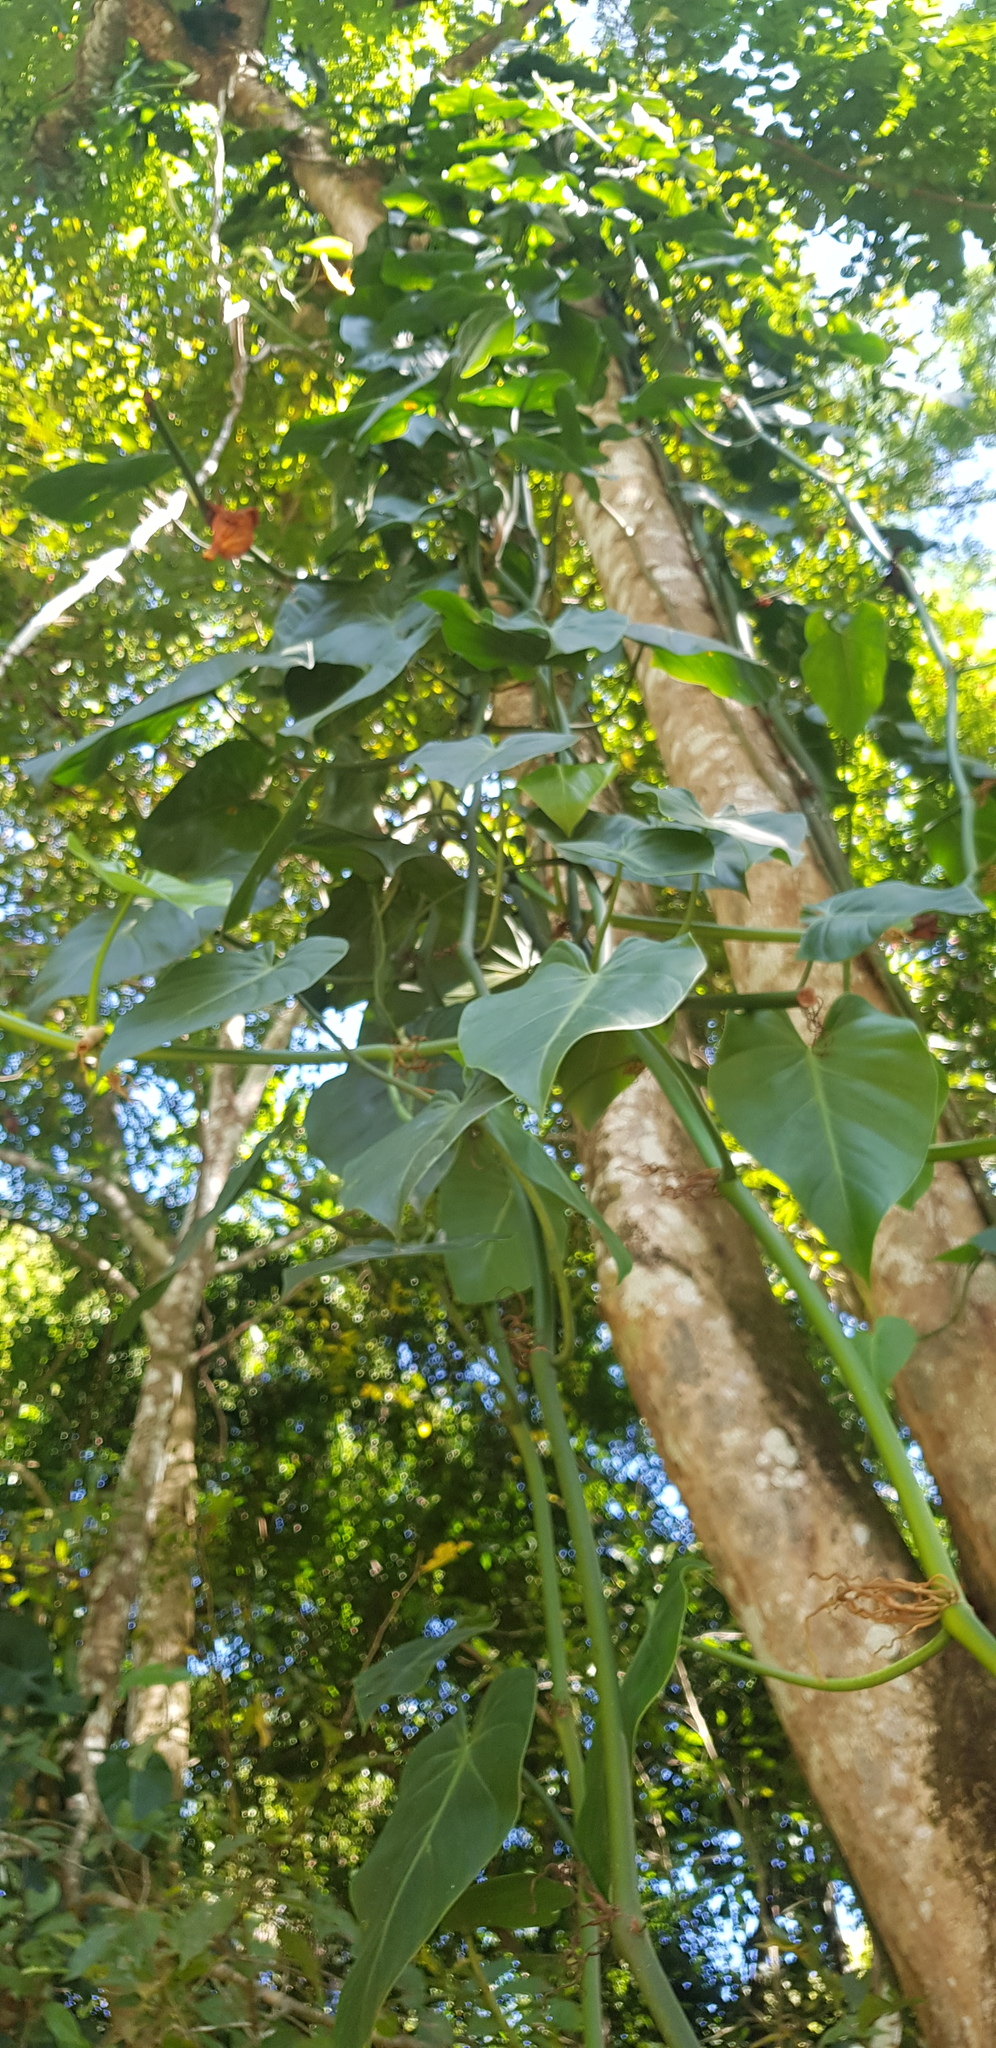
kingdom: Plantae
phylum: Tracheophyta
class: Liliopsida
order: Alismatales
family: Araceae
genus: Philodendron
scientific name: Philodendron hederaceum
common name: Vilevine
